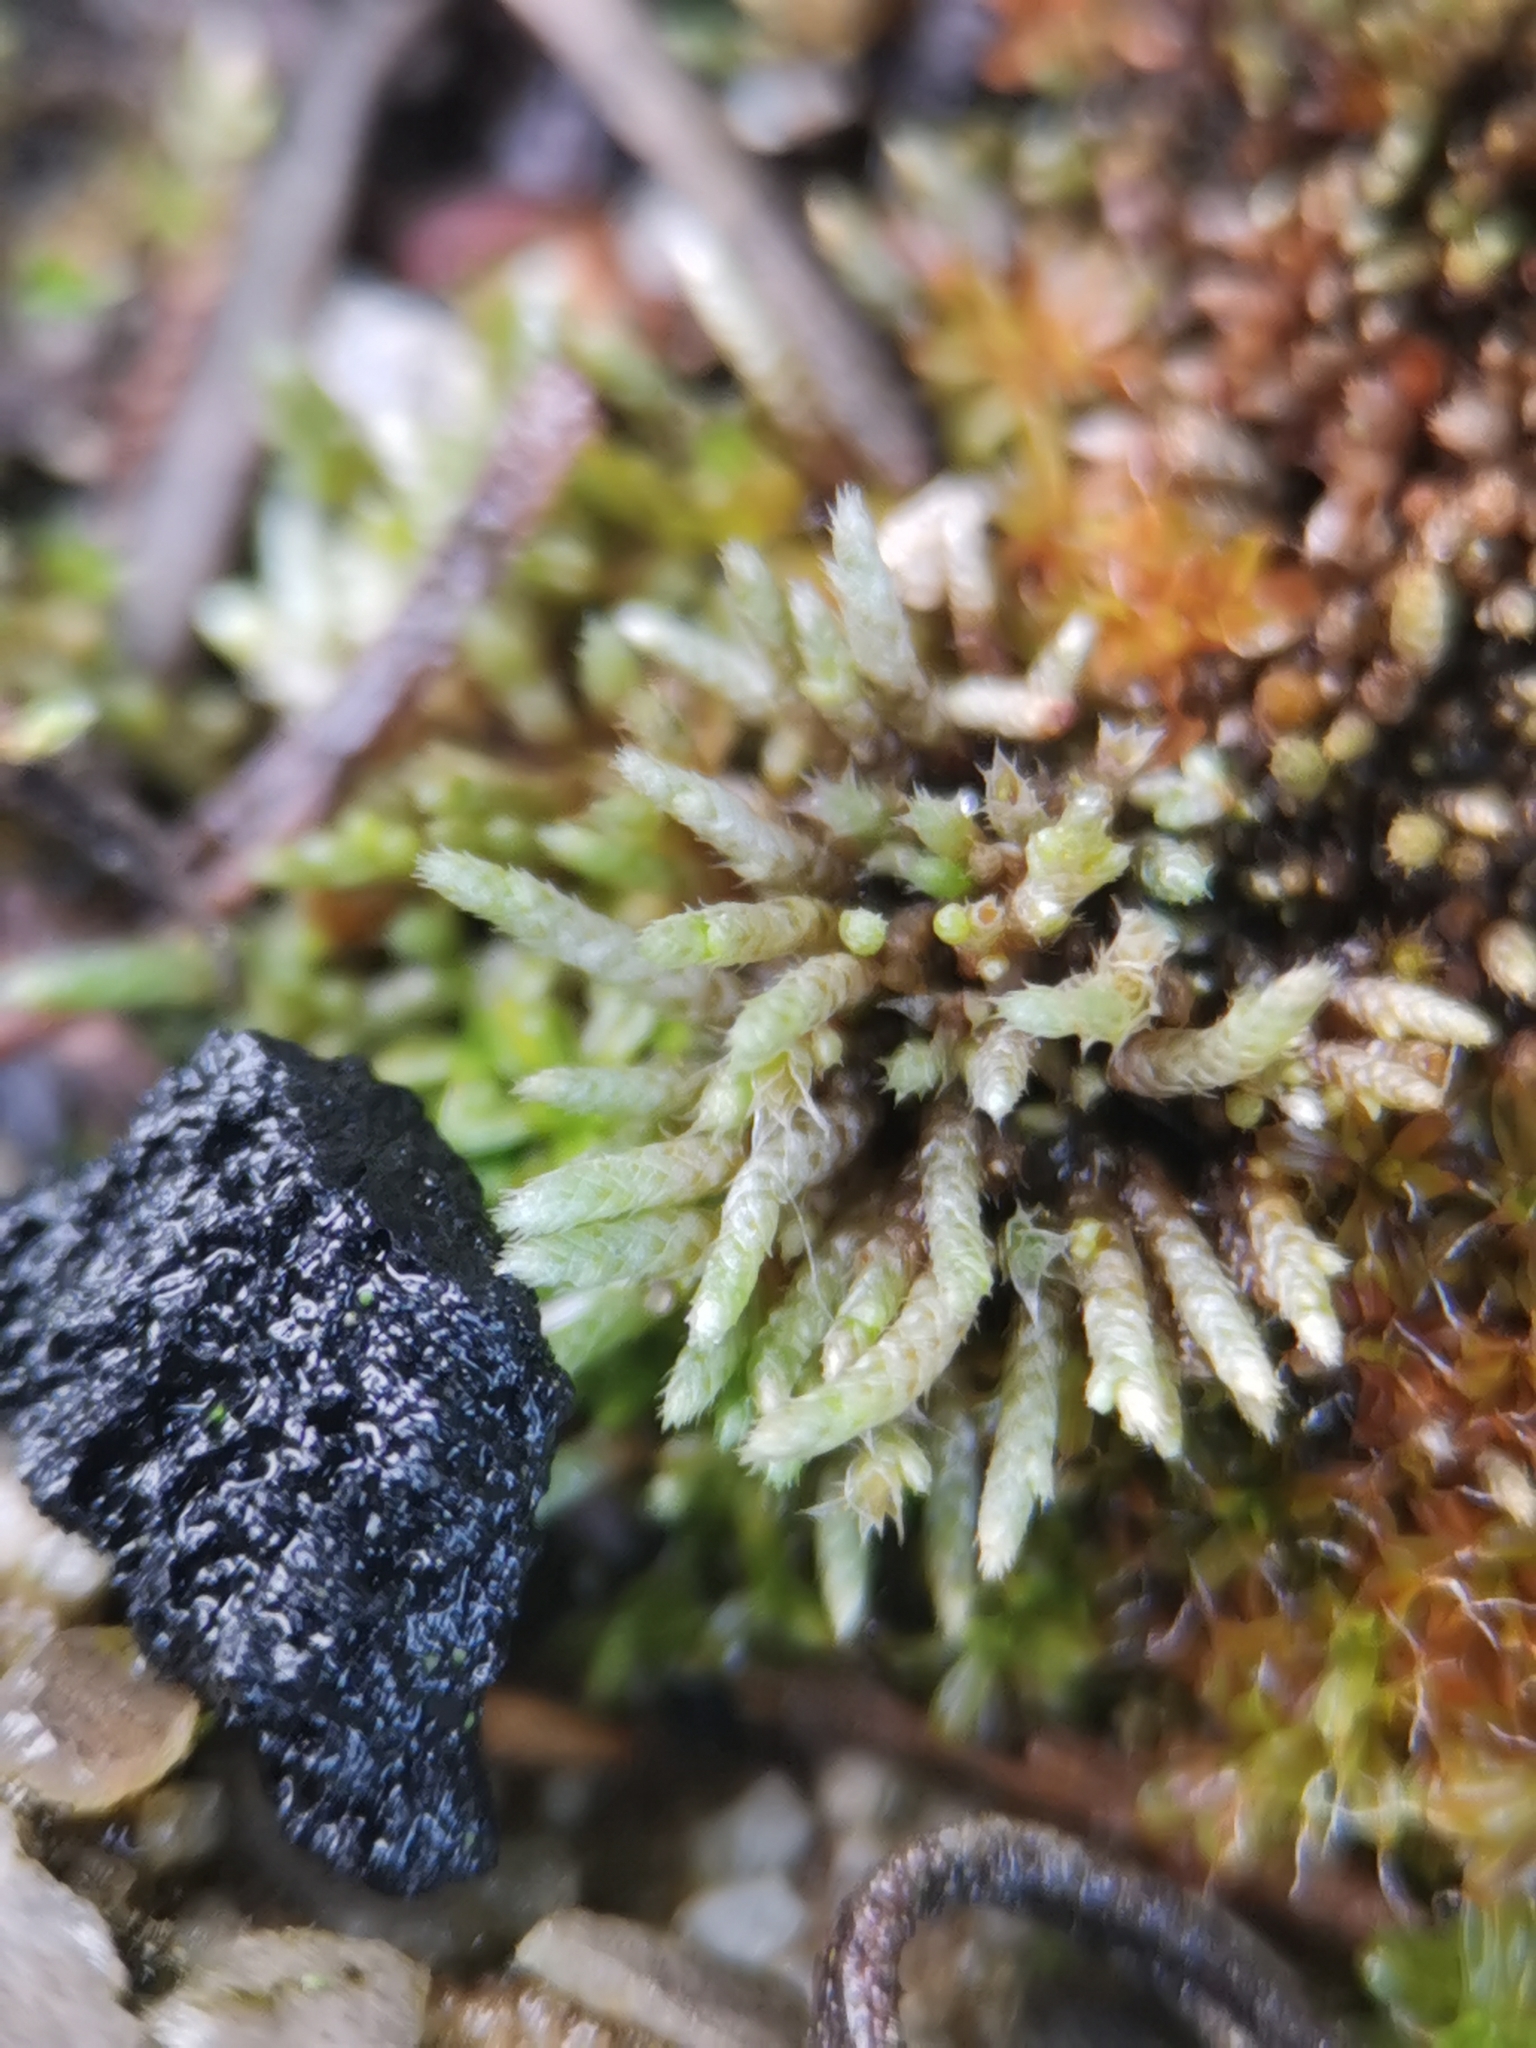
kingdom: Plantae
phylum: Bryophyta
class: Bryopsida
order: Bryales
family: Bryaceae
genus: Bryum
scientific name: Bryum argenteum
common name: Silver-moss
